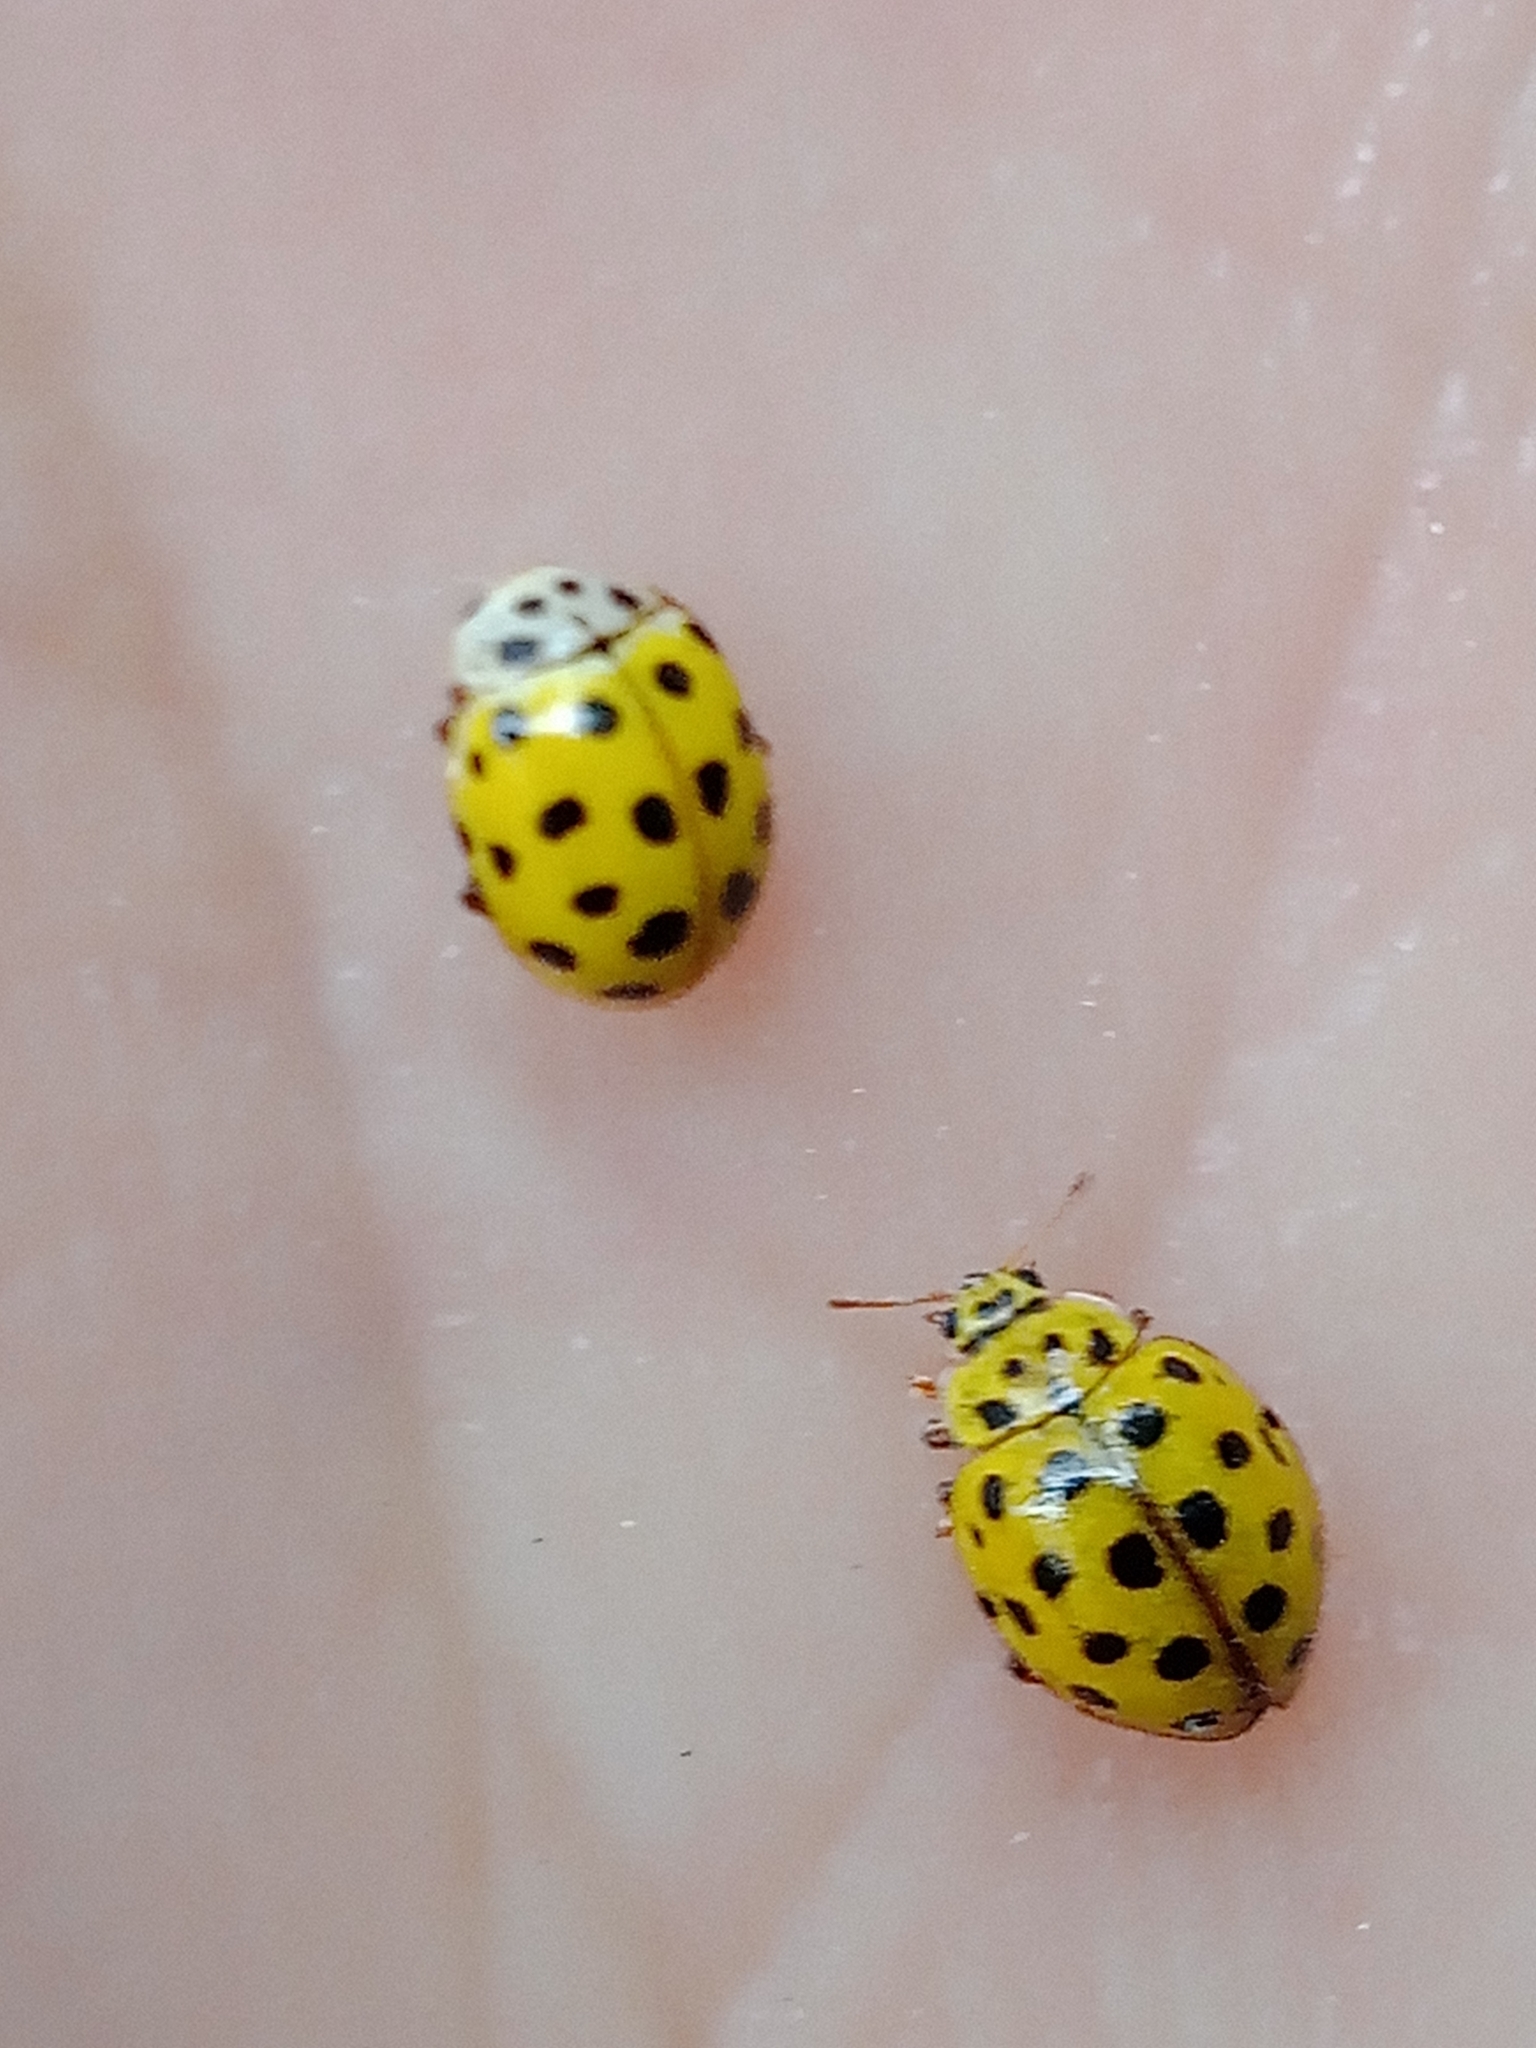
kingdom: Animalia
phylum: Arthropoda
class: Insecta
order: Coleoptera
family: Coccinellidae
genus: Psyllobora
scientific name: Psyllobora vigintiduopunctata
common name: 22-spot ladybird
